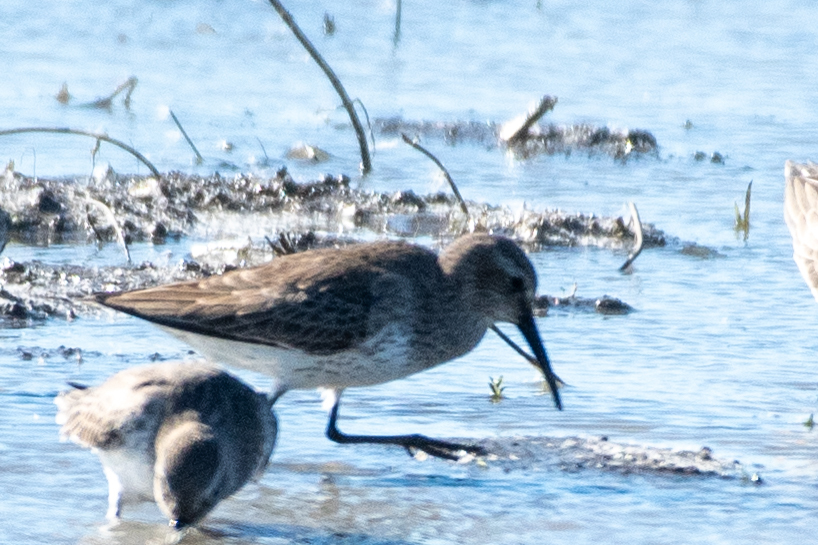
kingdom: Animalia
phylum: Chordata
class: Aves
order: Charadriiformes
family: Scolopacidae
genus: Calidris
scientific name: Calidris alpina
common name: Dunlin
